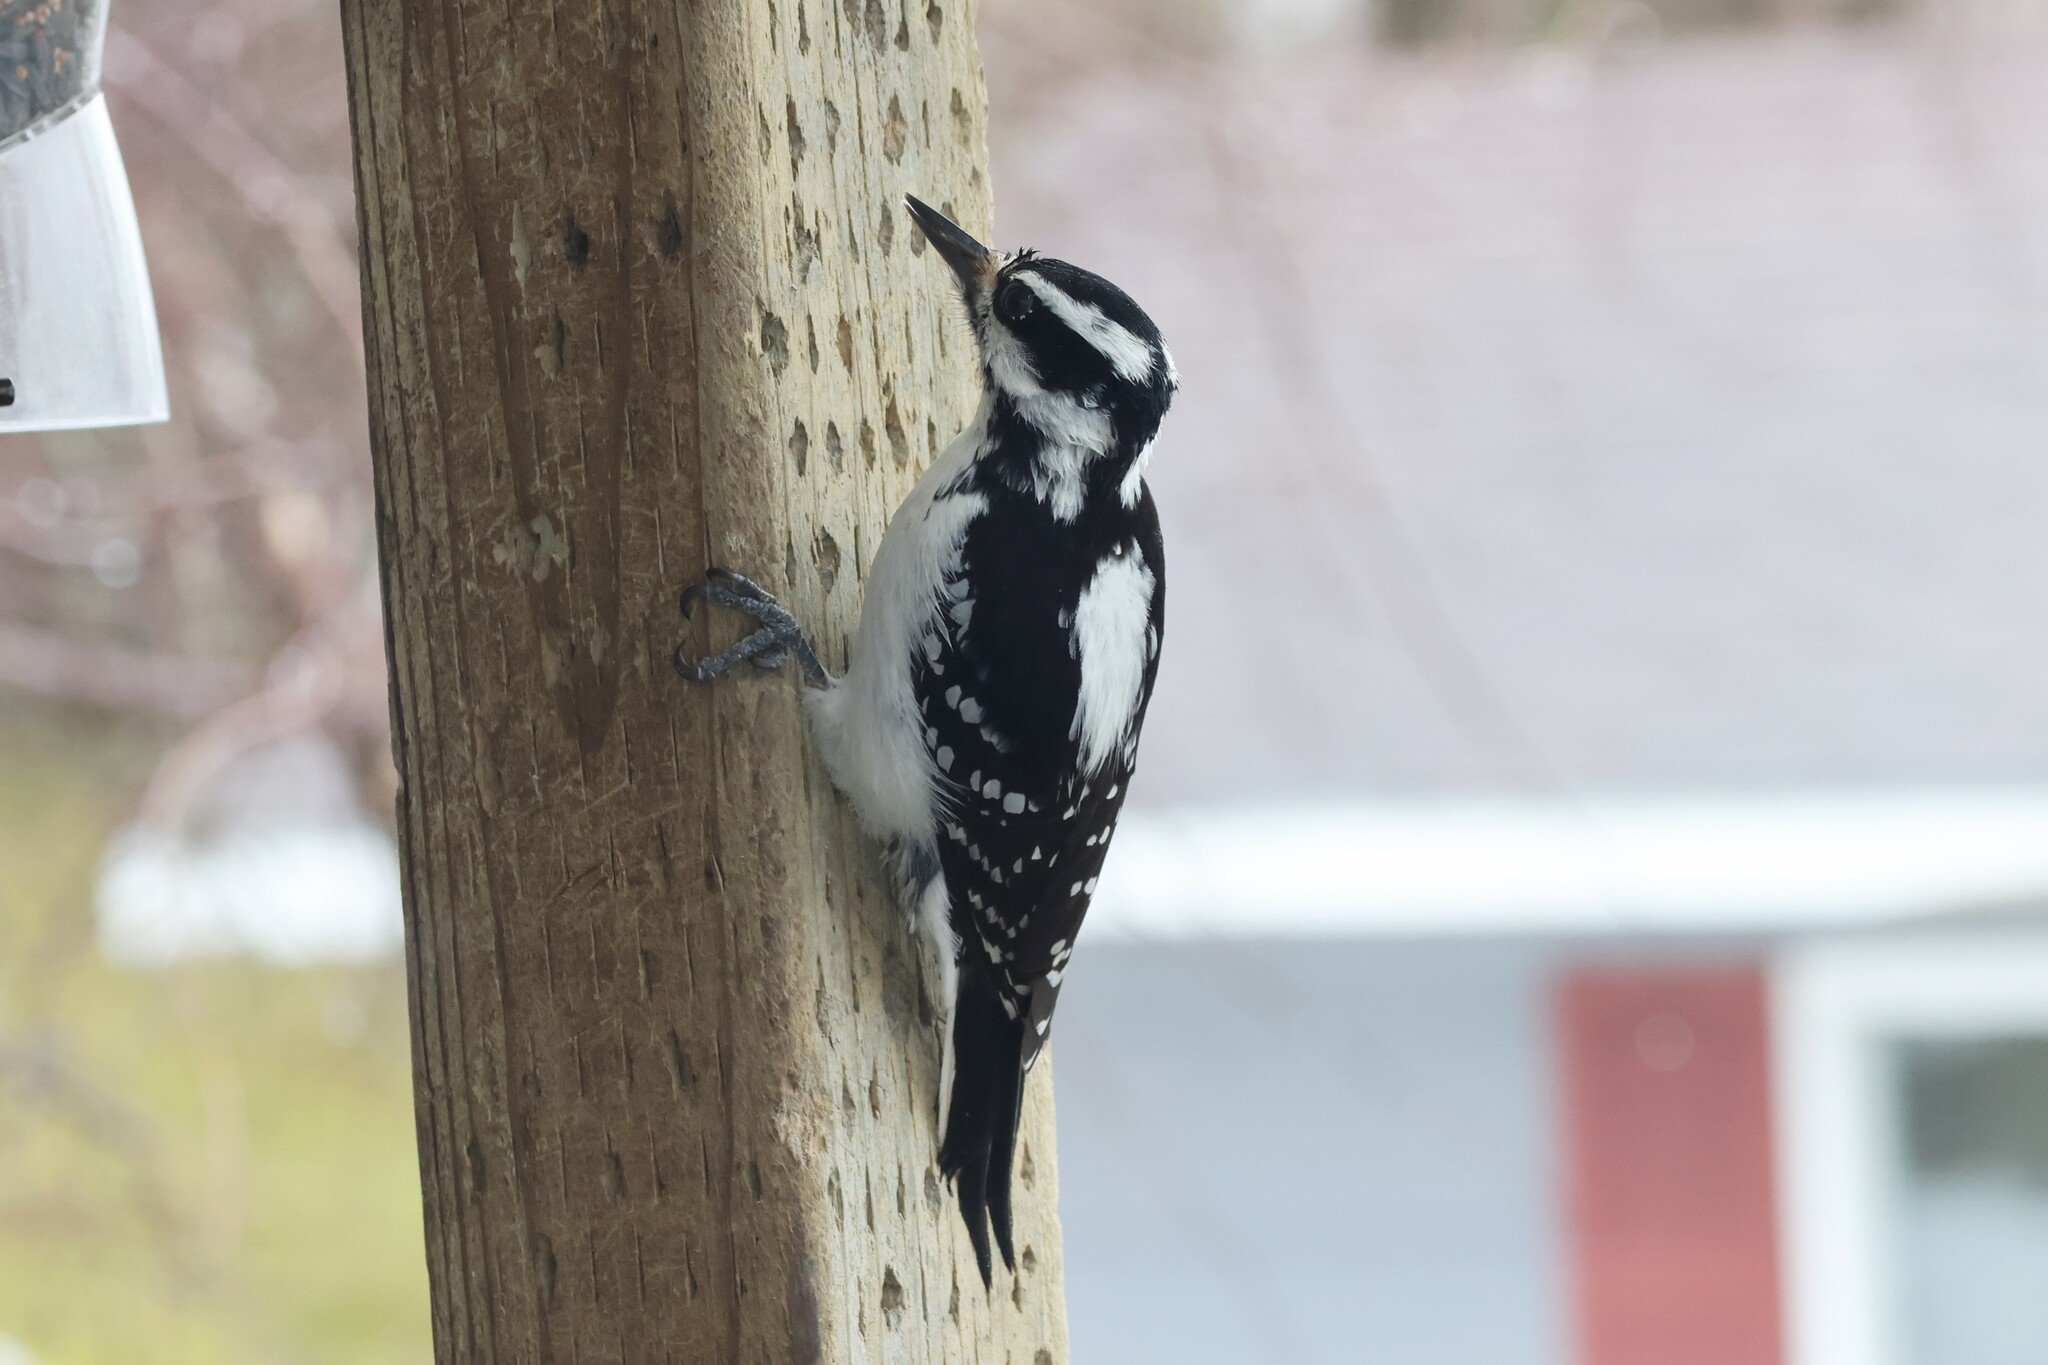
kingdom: Animalia
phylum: Chordata
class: Aves
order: Piciformes
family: Picidae
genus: Leuconotopicus
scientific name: Leuconotopicus villosus
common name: Hairy woodpecker
